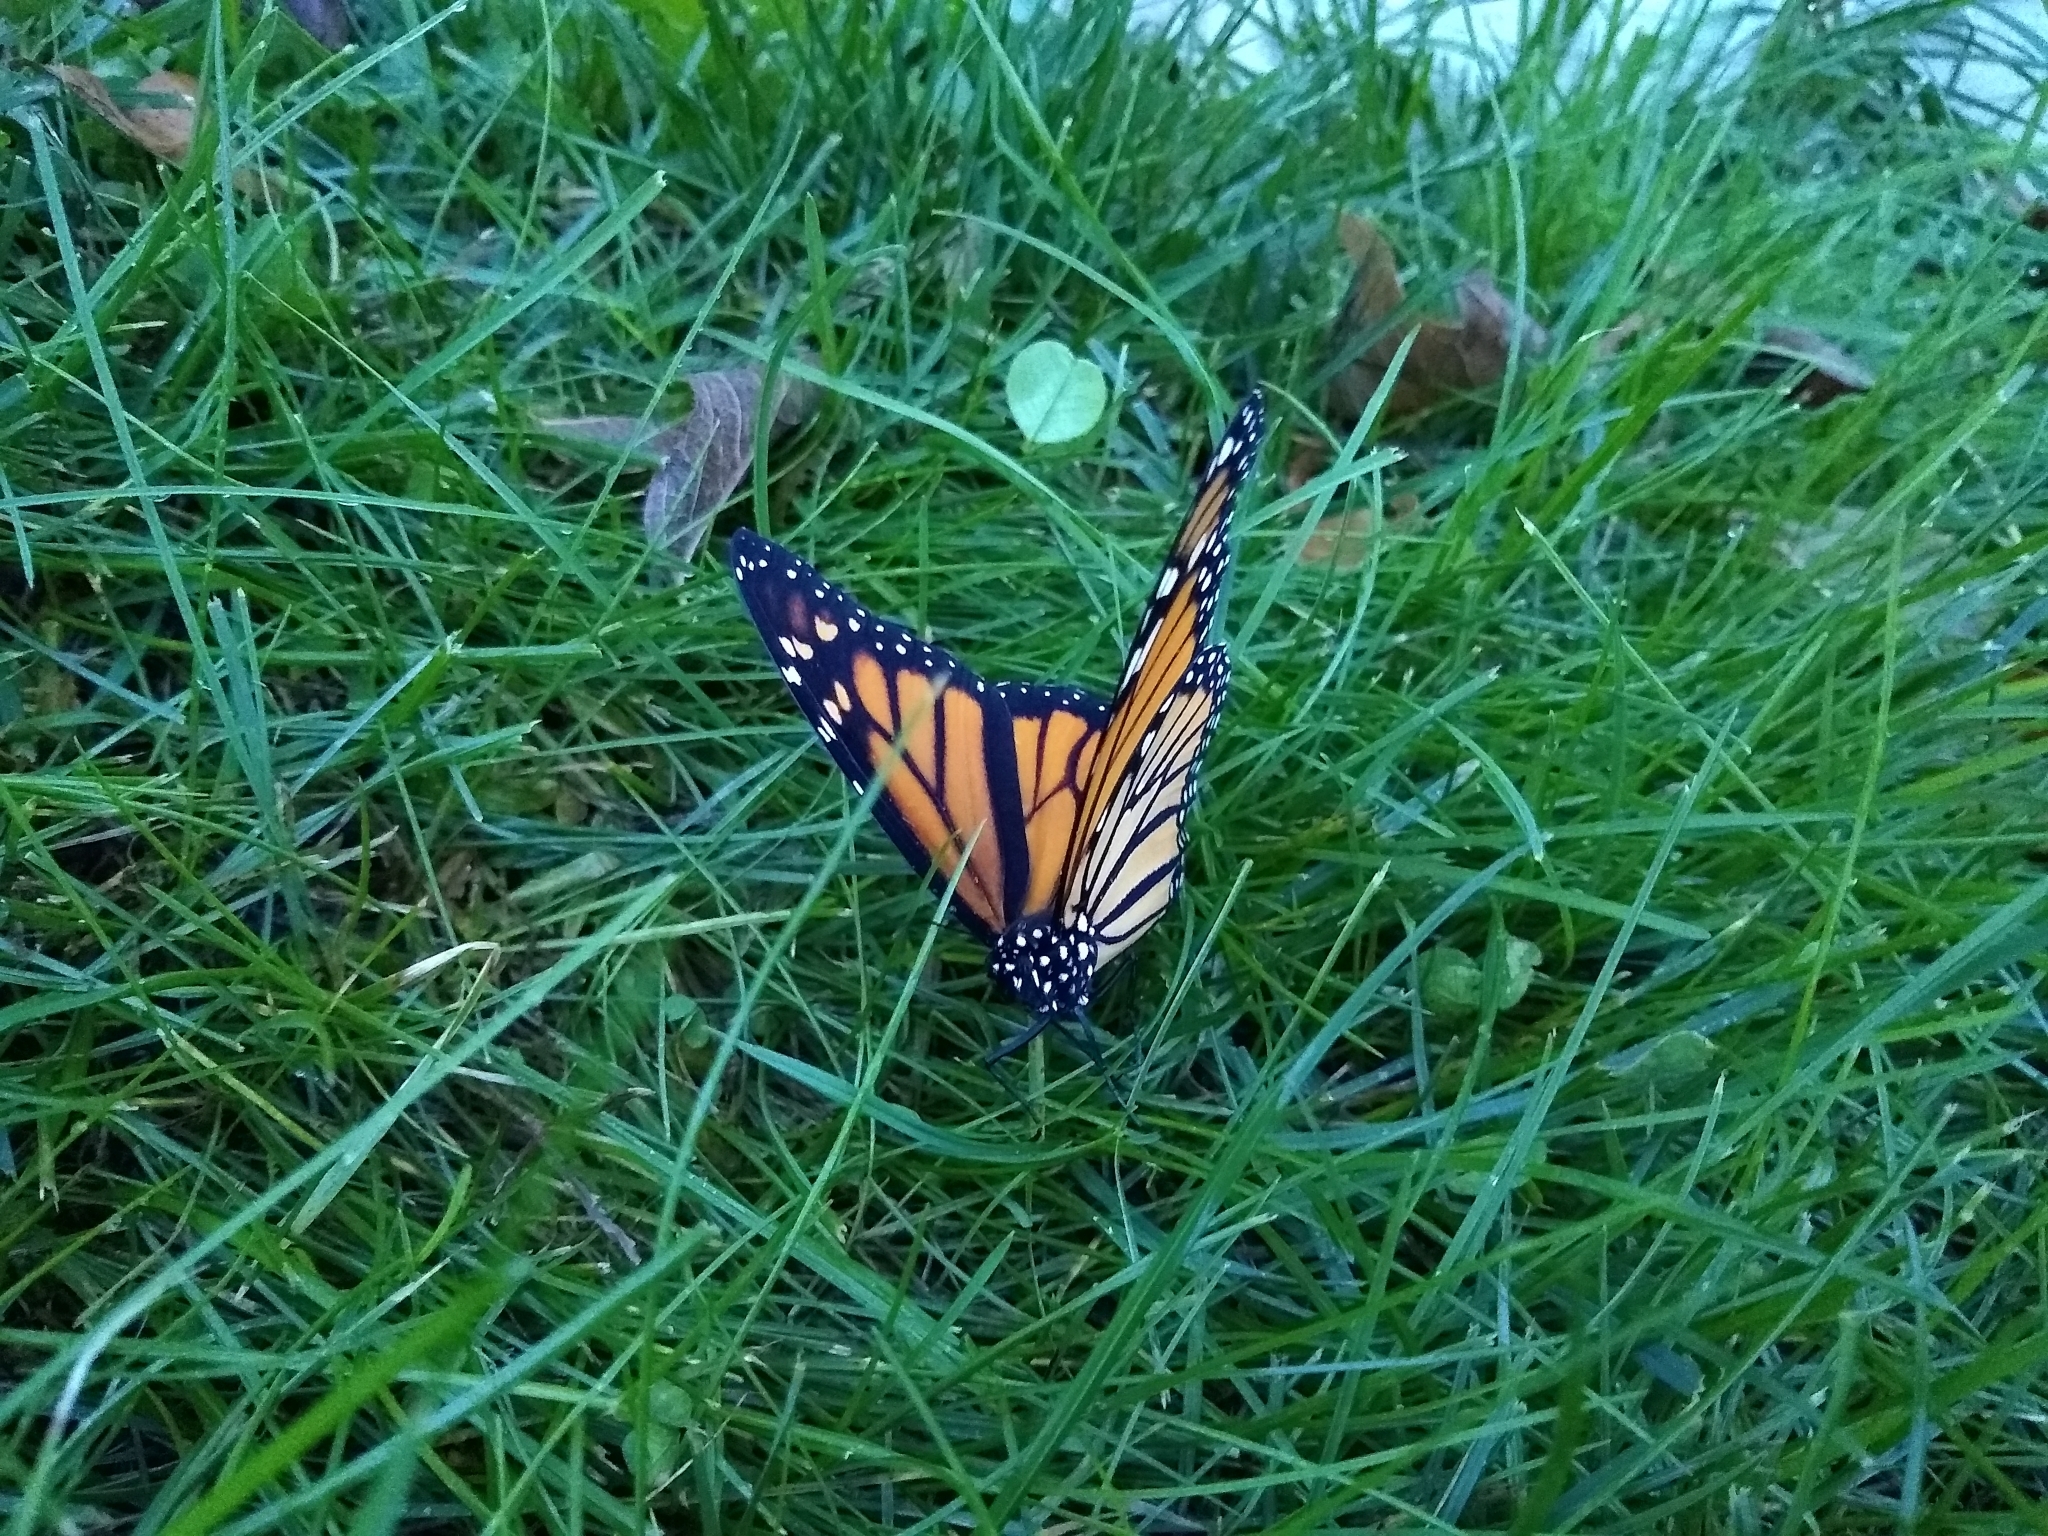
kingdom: Animalia
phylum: Arthropoda
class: Insecta
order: Lepidoptera
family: Nymphalidae
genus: Danaus
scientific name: Danaus plexippus
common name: Monarch
